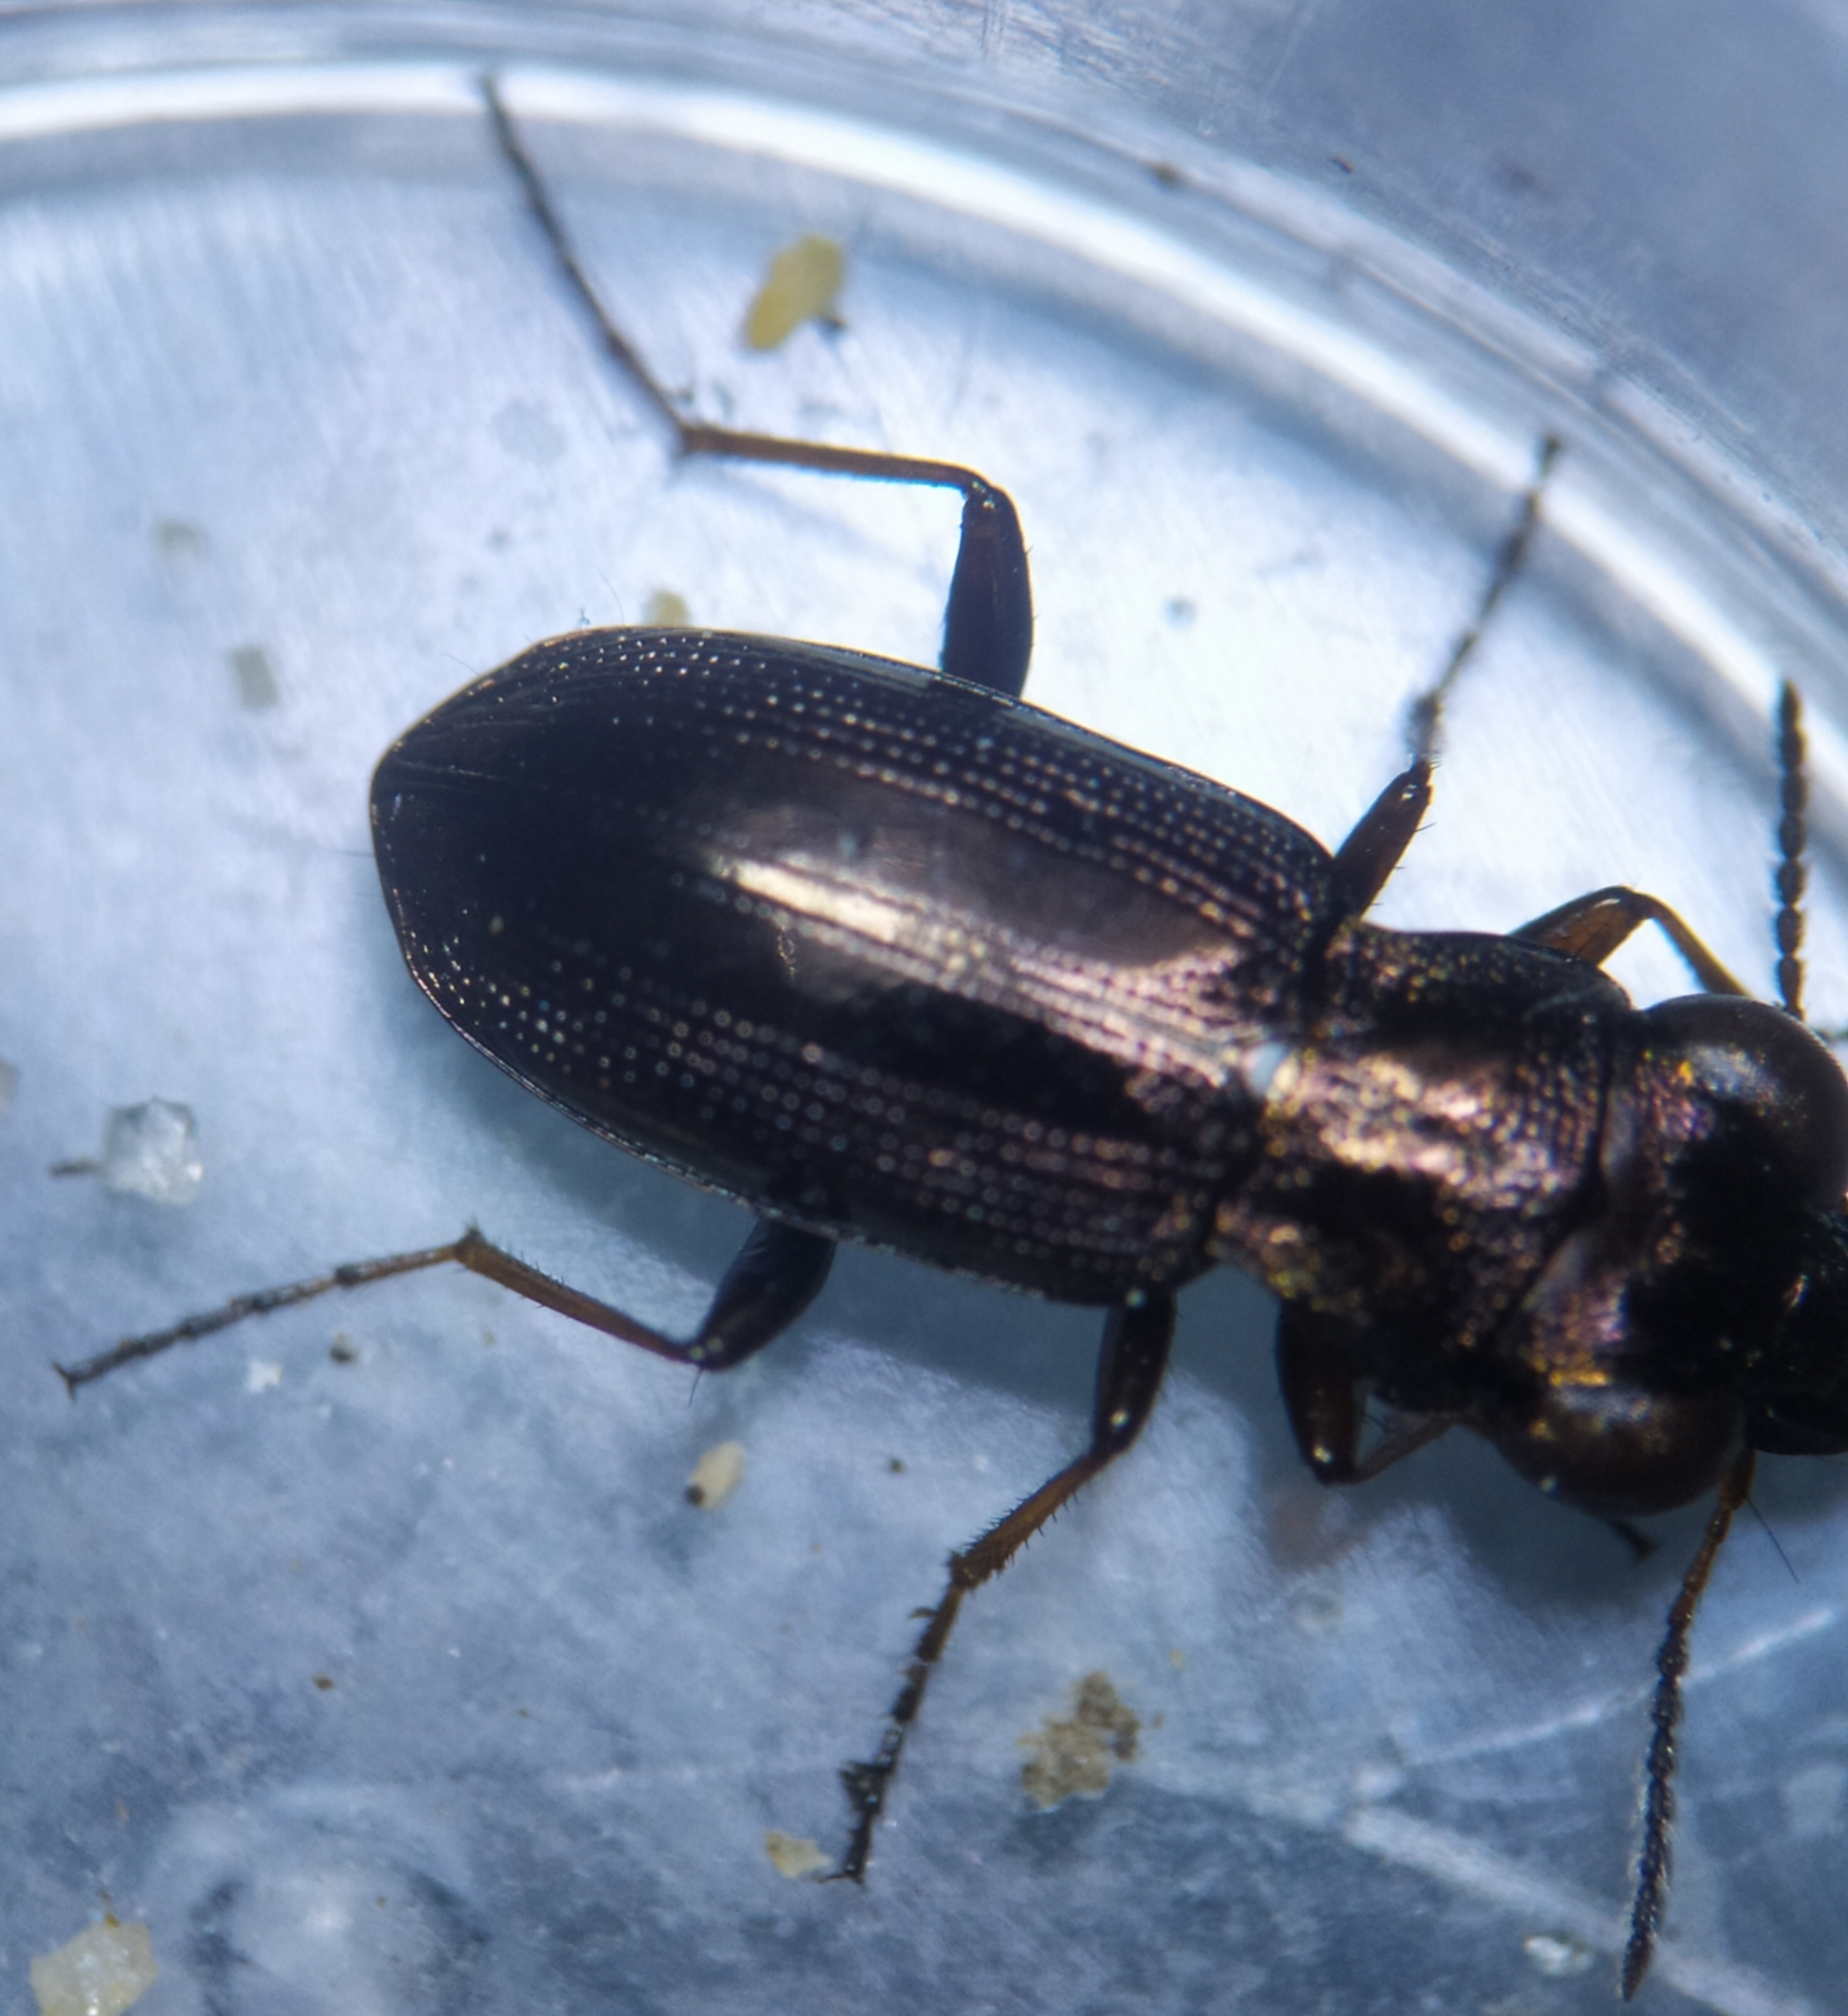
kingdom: Animalia
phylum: Arthropoda
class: Insecta
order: Coleoptera
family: Carabidae
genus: Notiophilus
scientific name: Notiophilus rufipes
